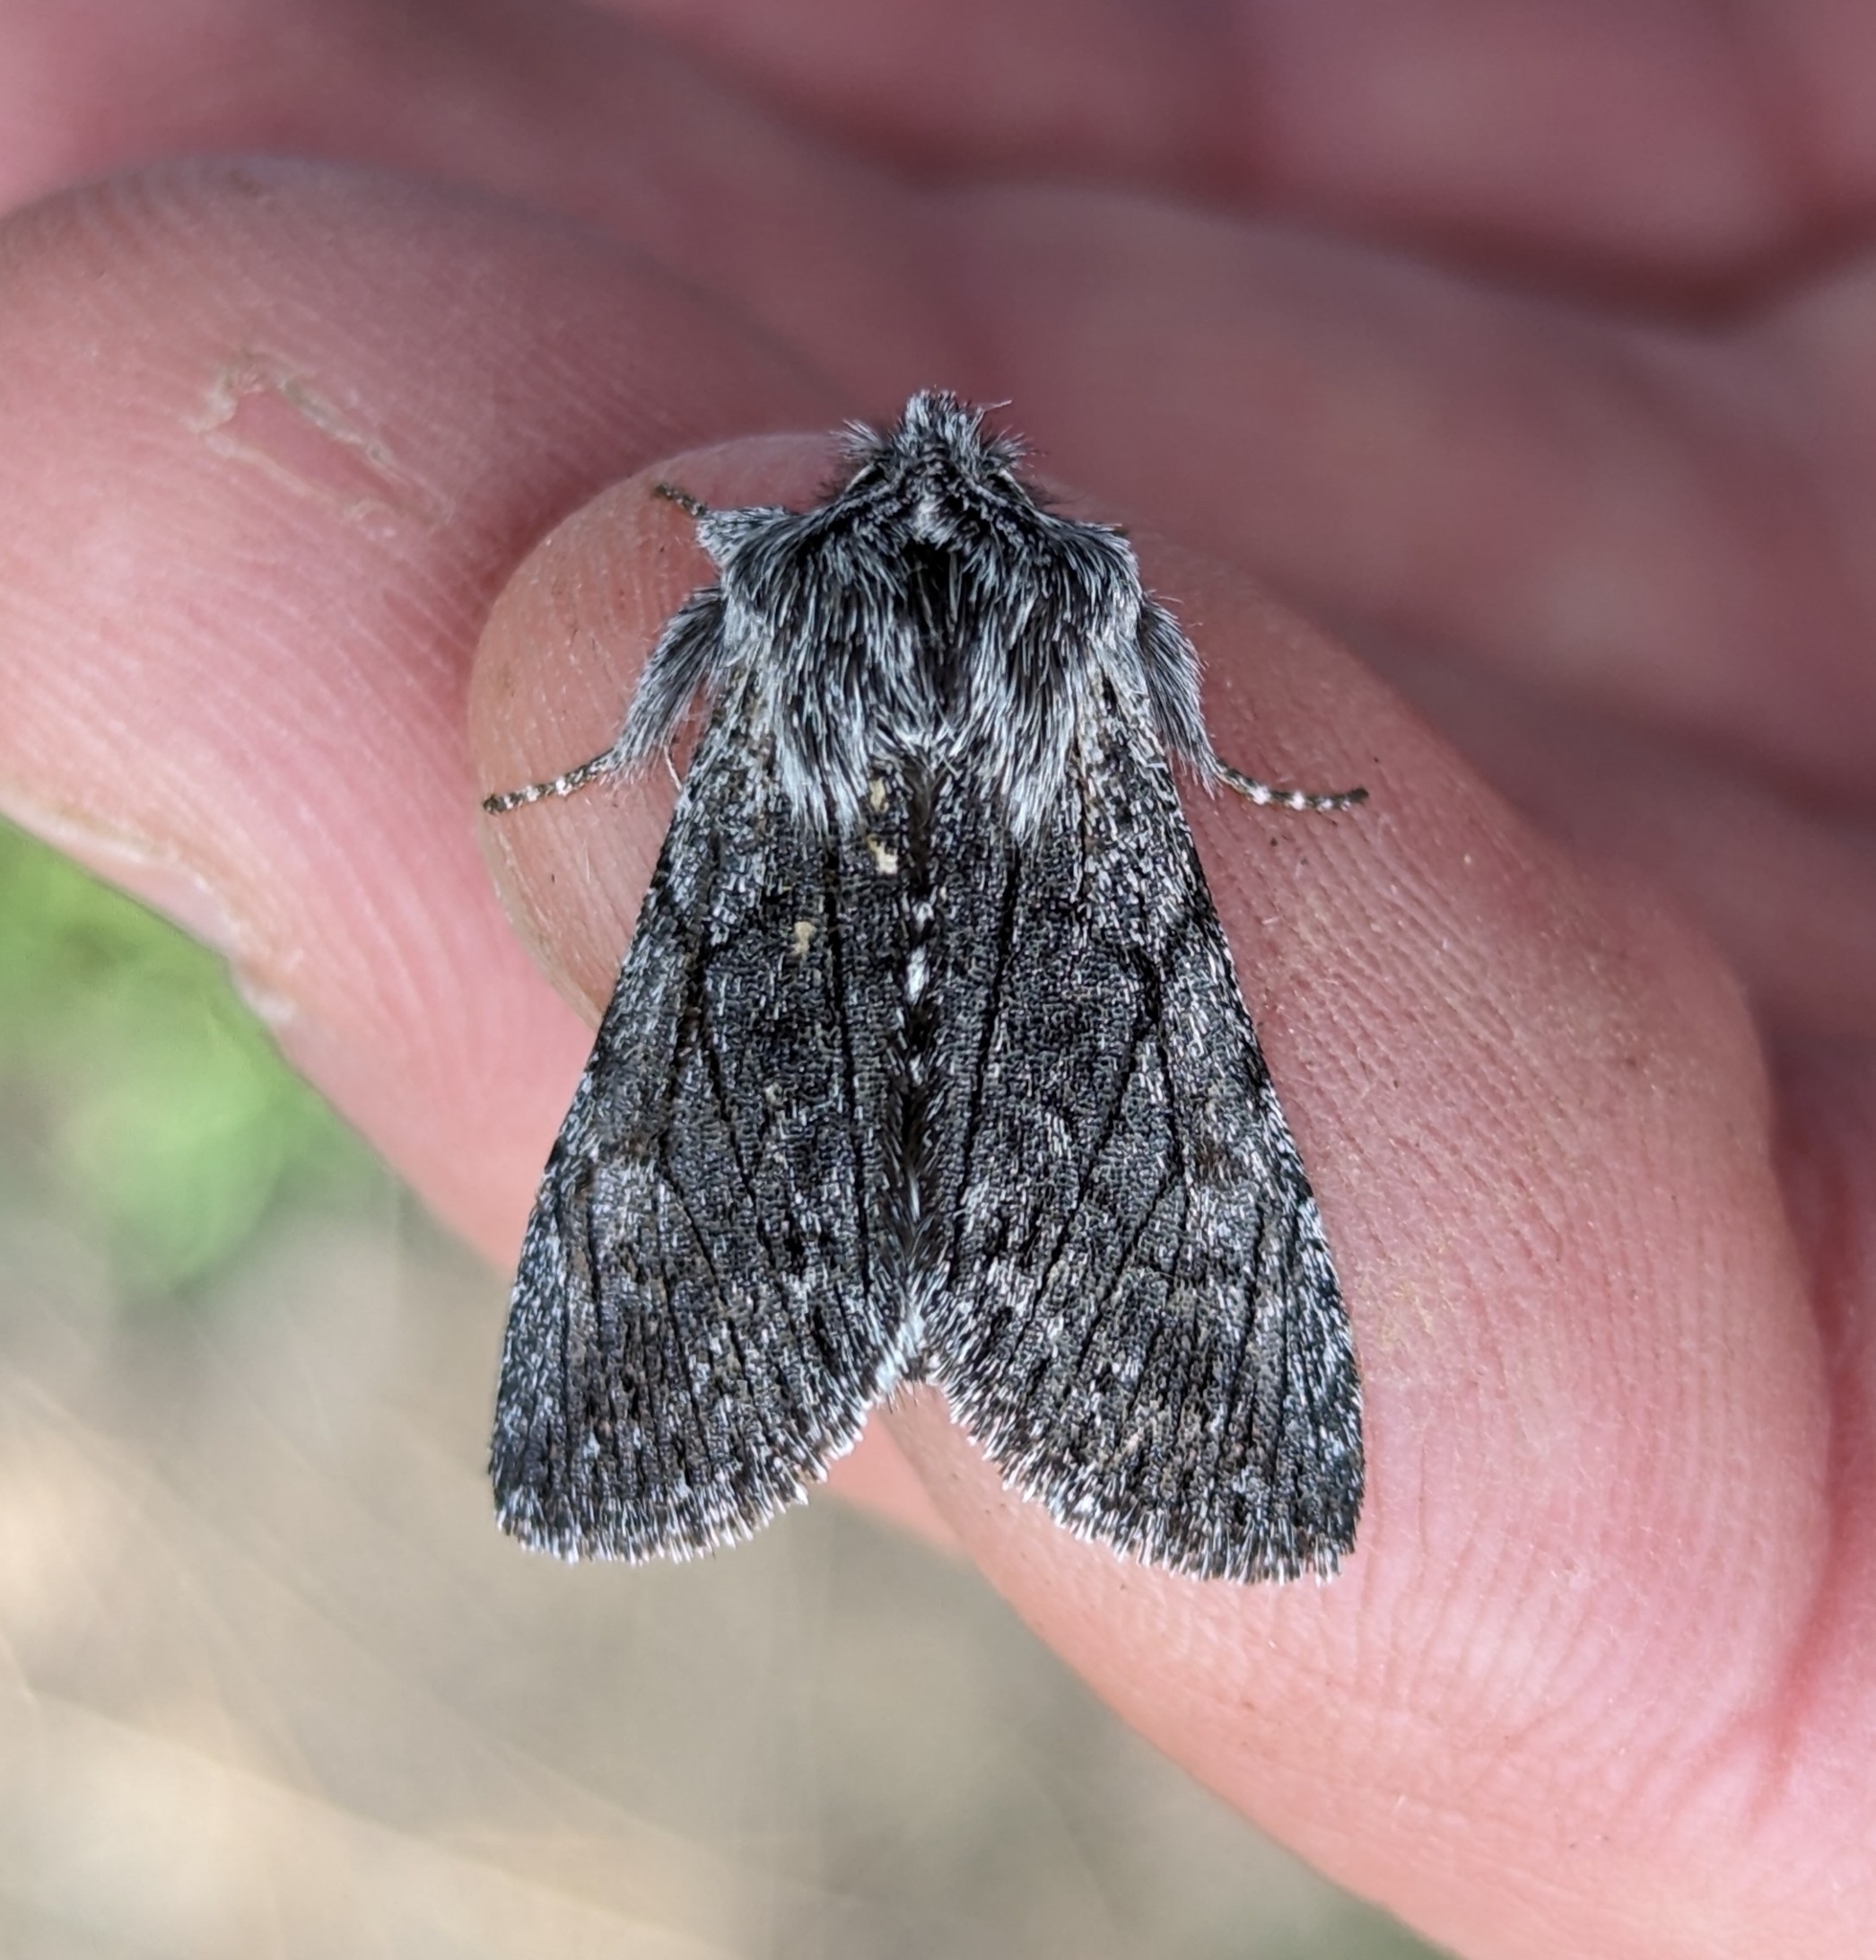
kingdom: Animalia
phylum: Arthropoda
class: Insecta
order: Lepidoptera
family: Noctuidae
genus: Pleromelloida
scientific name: Pleromelloida conserta
